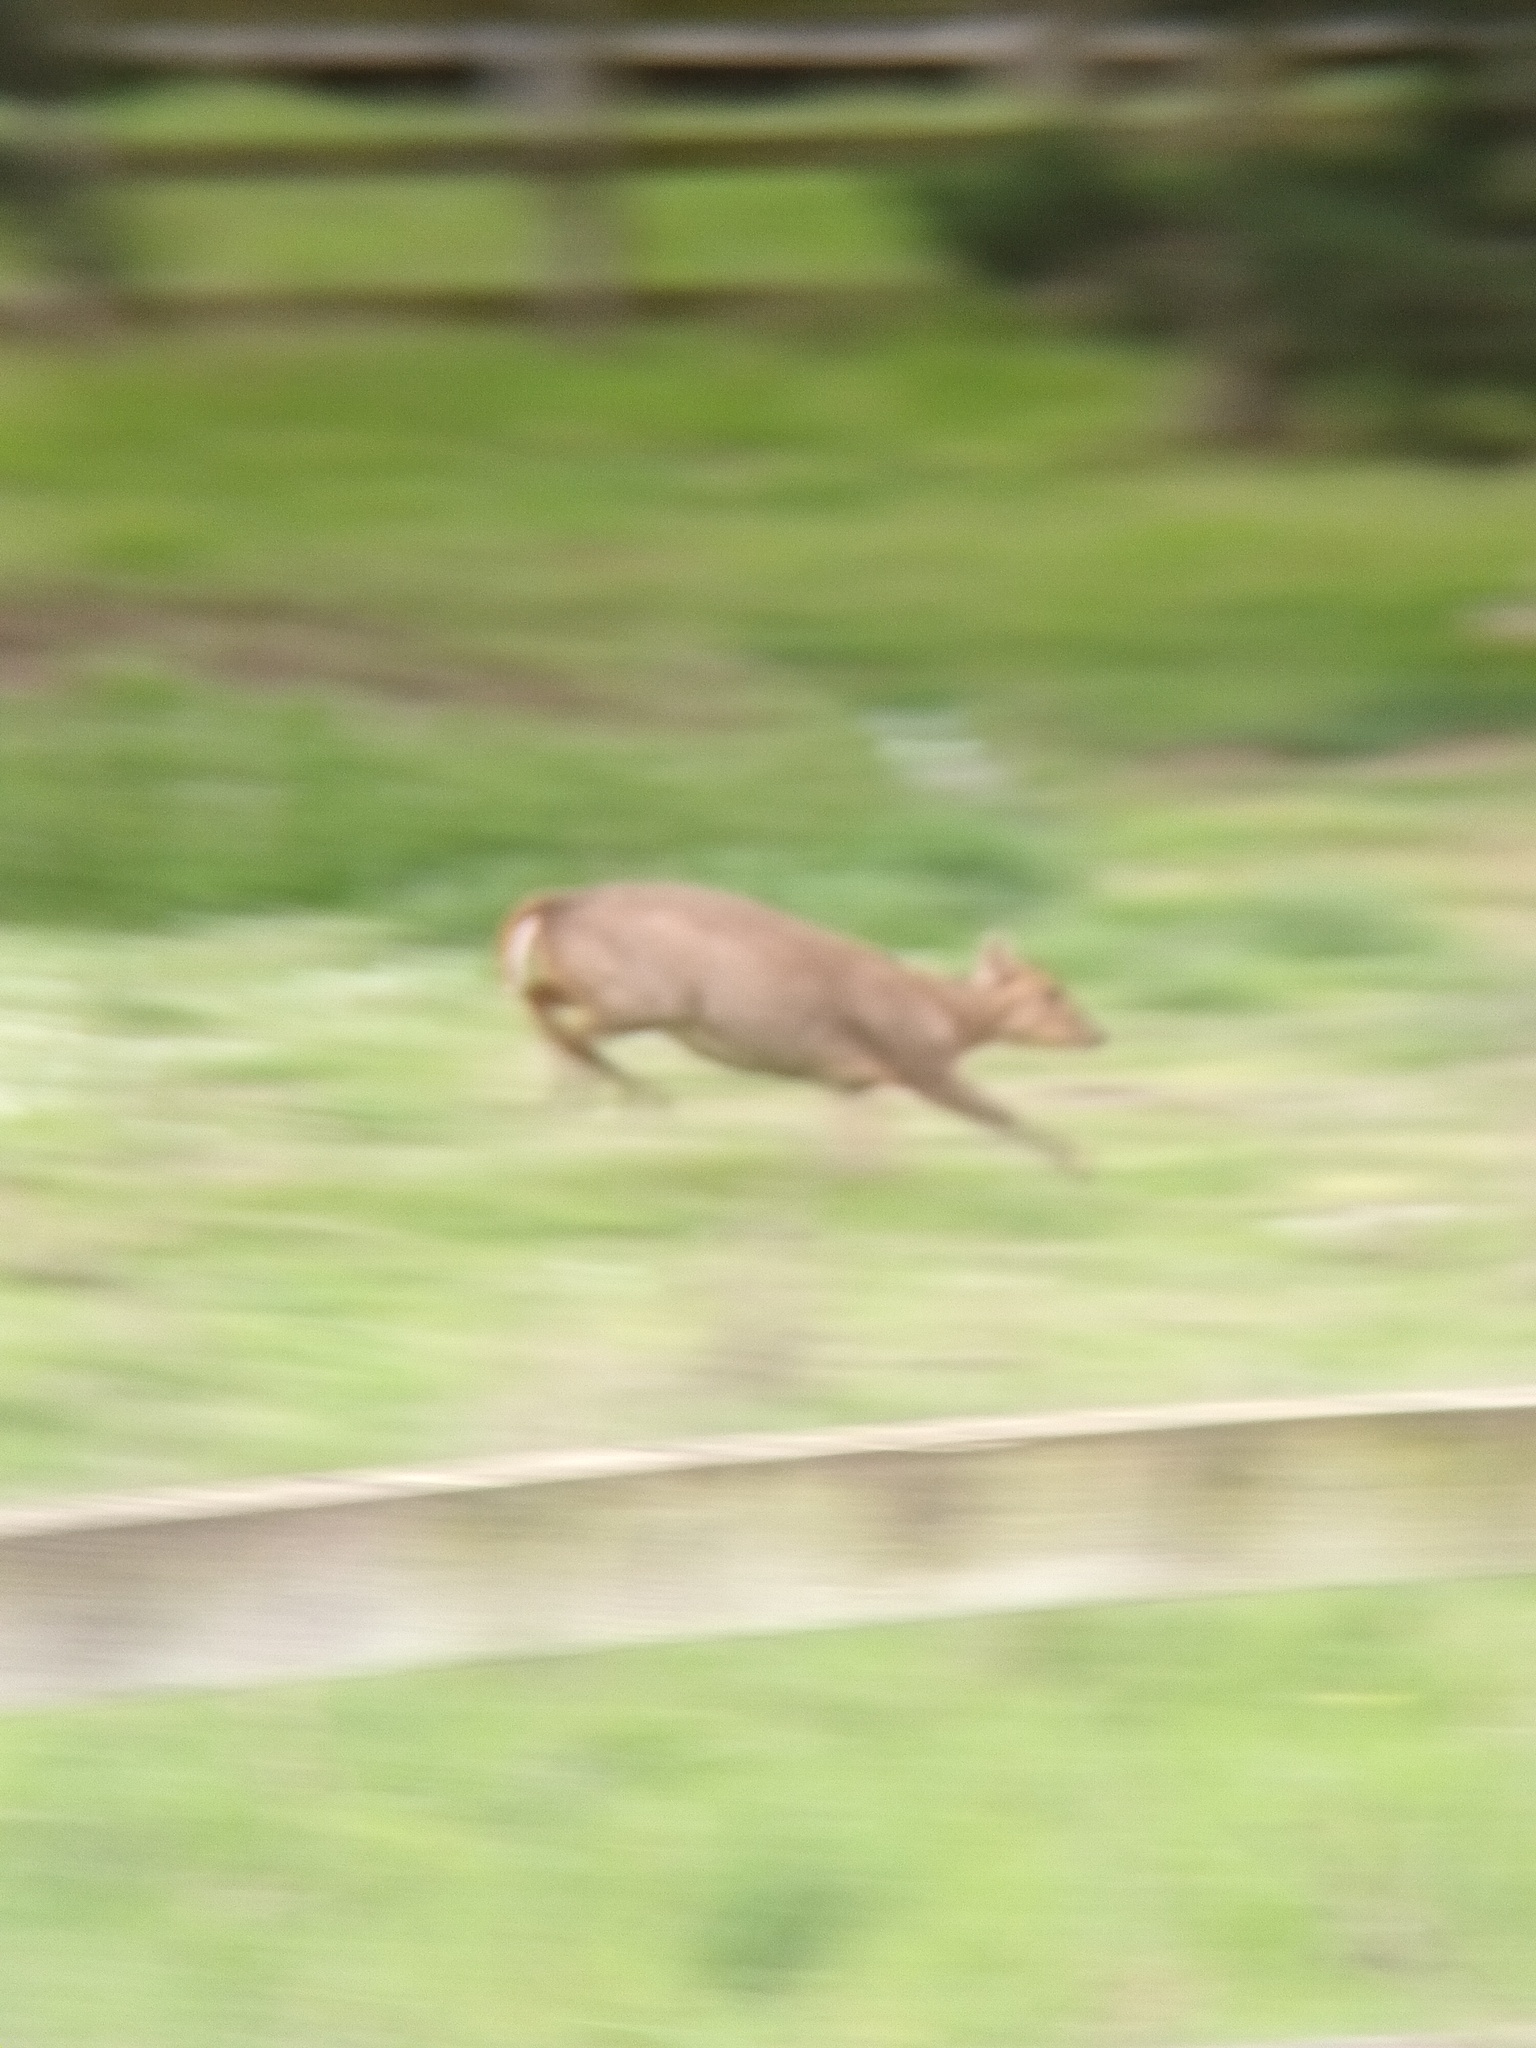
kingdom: Animalia
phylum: Chordata
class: Mammalia
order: Artiodactyla
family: Cervidae
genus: Muntiacus
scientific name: Muntiacus reevesi
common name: Reeves' muntjac
